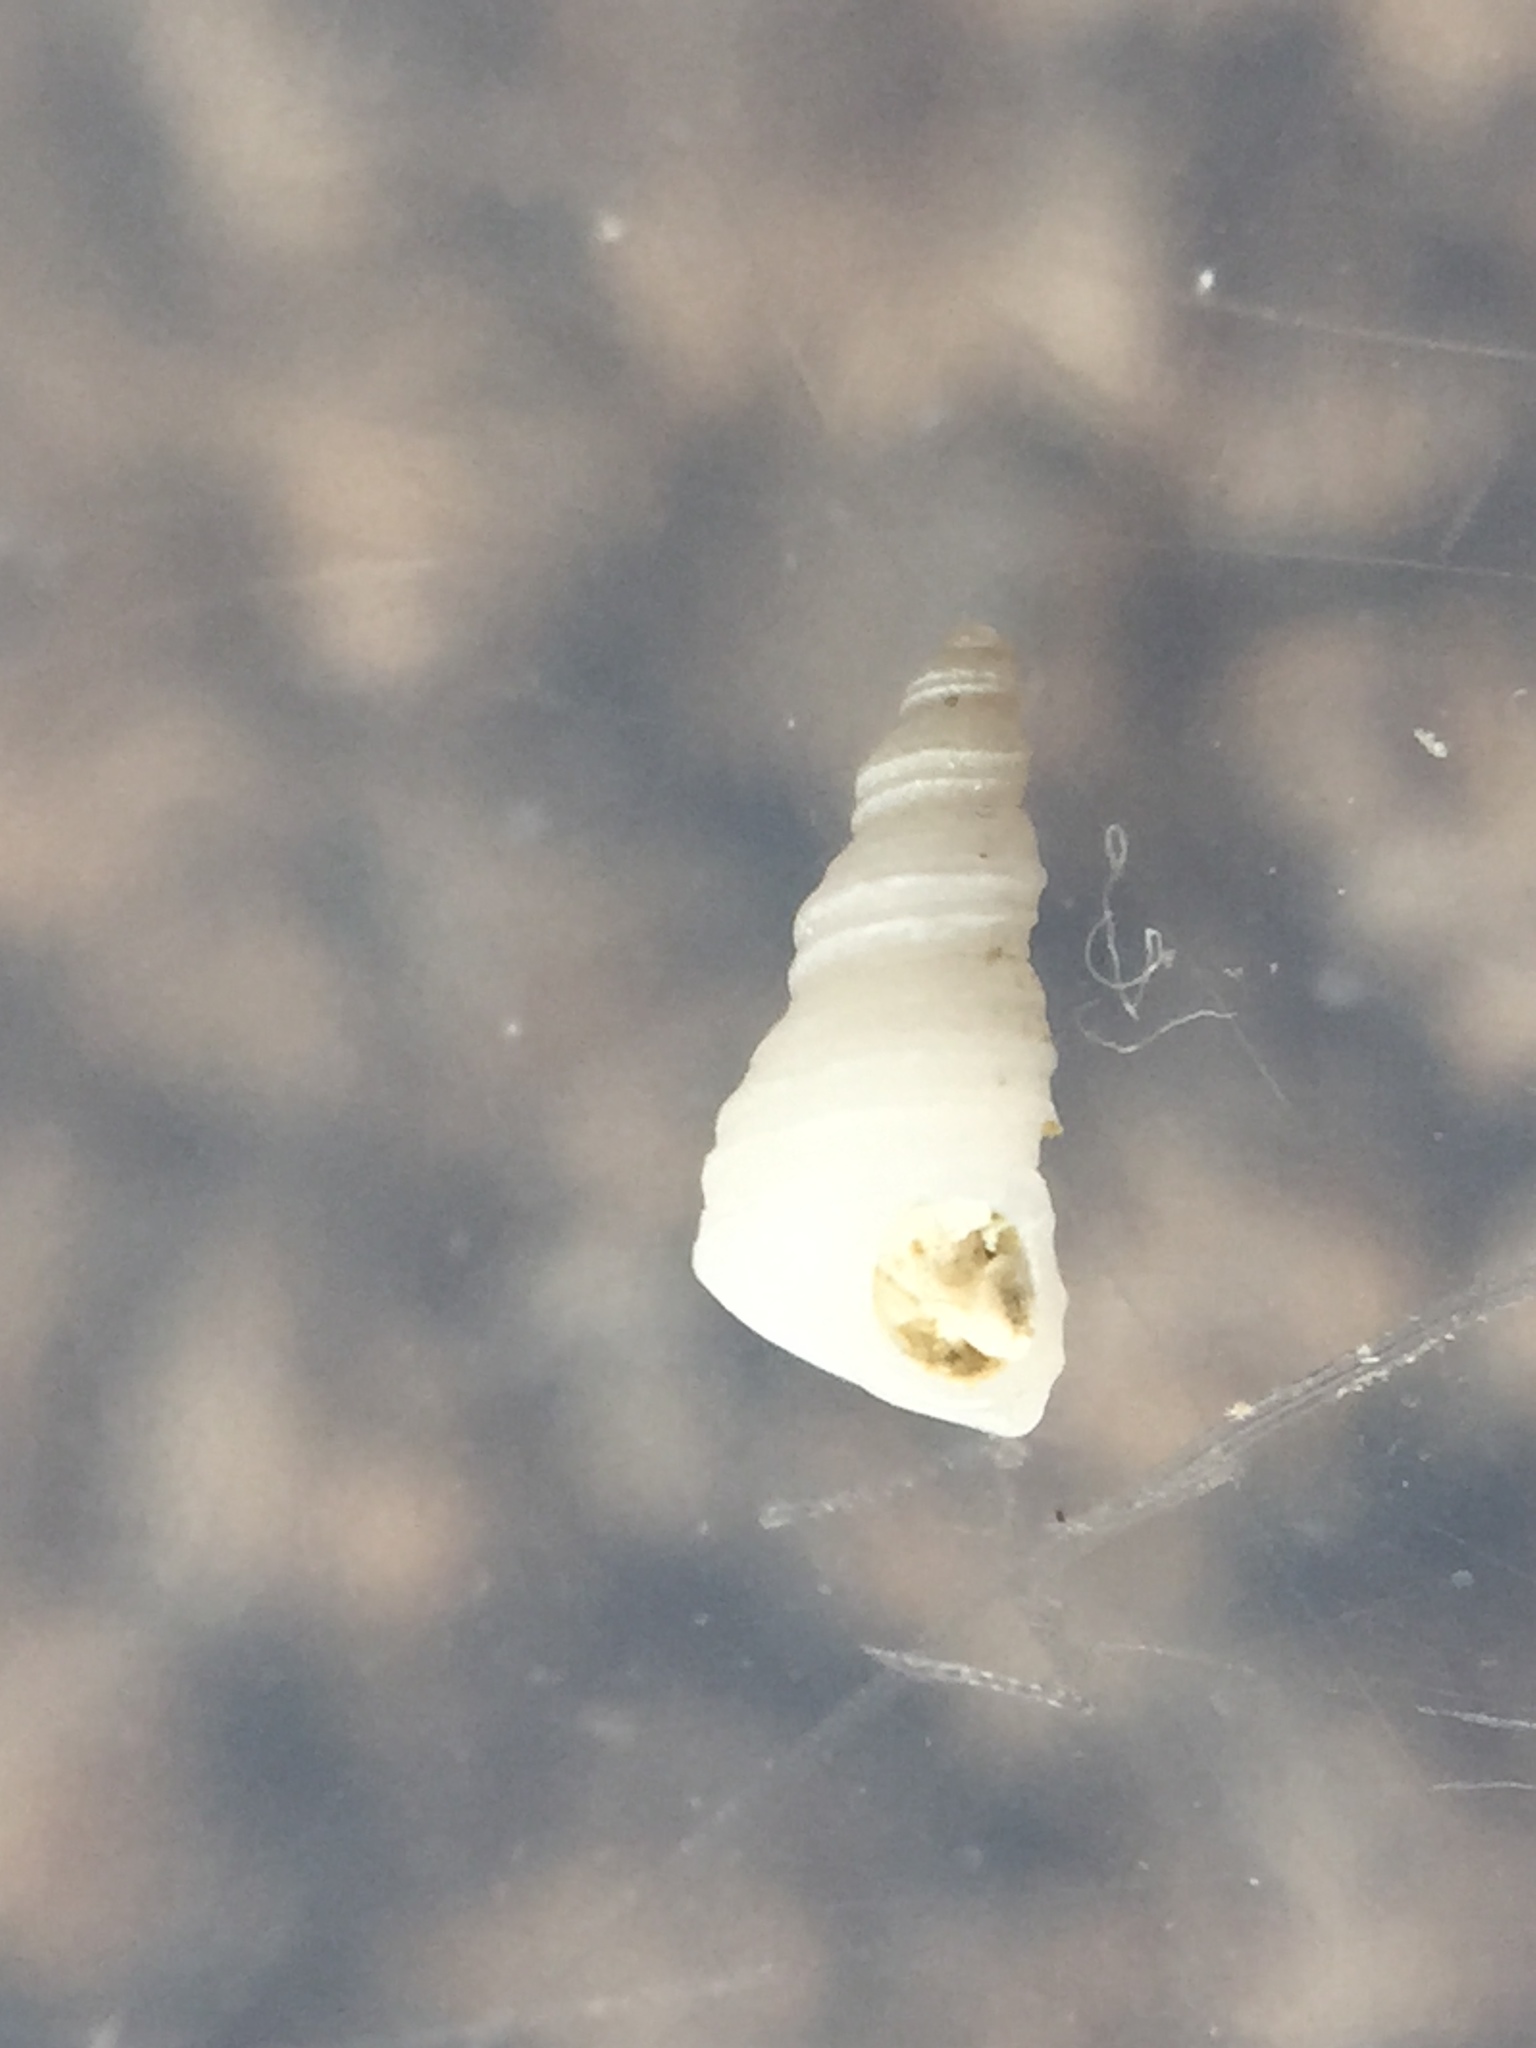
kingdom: Animalia
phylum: Mollusca
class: Gastropoda
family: Turritellidae
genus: Stiracolpus
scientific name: Stiracolpus pagoda
